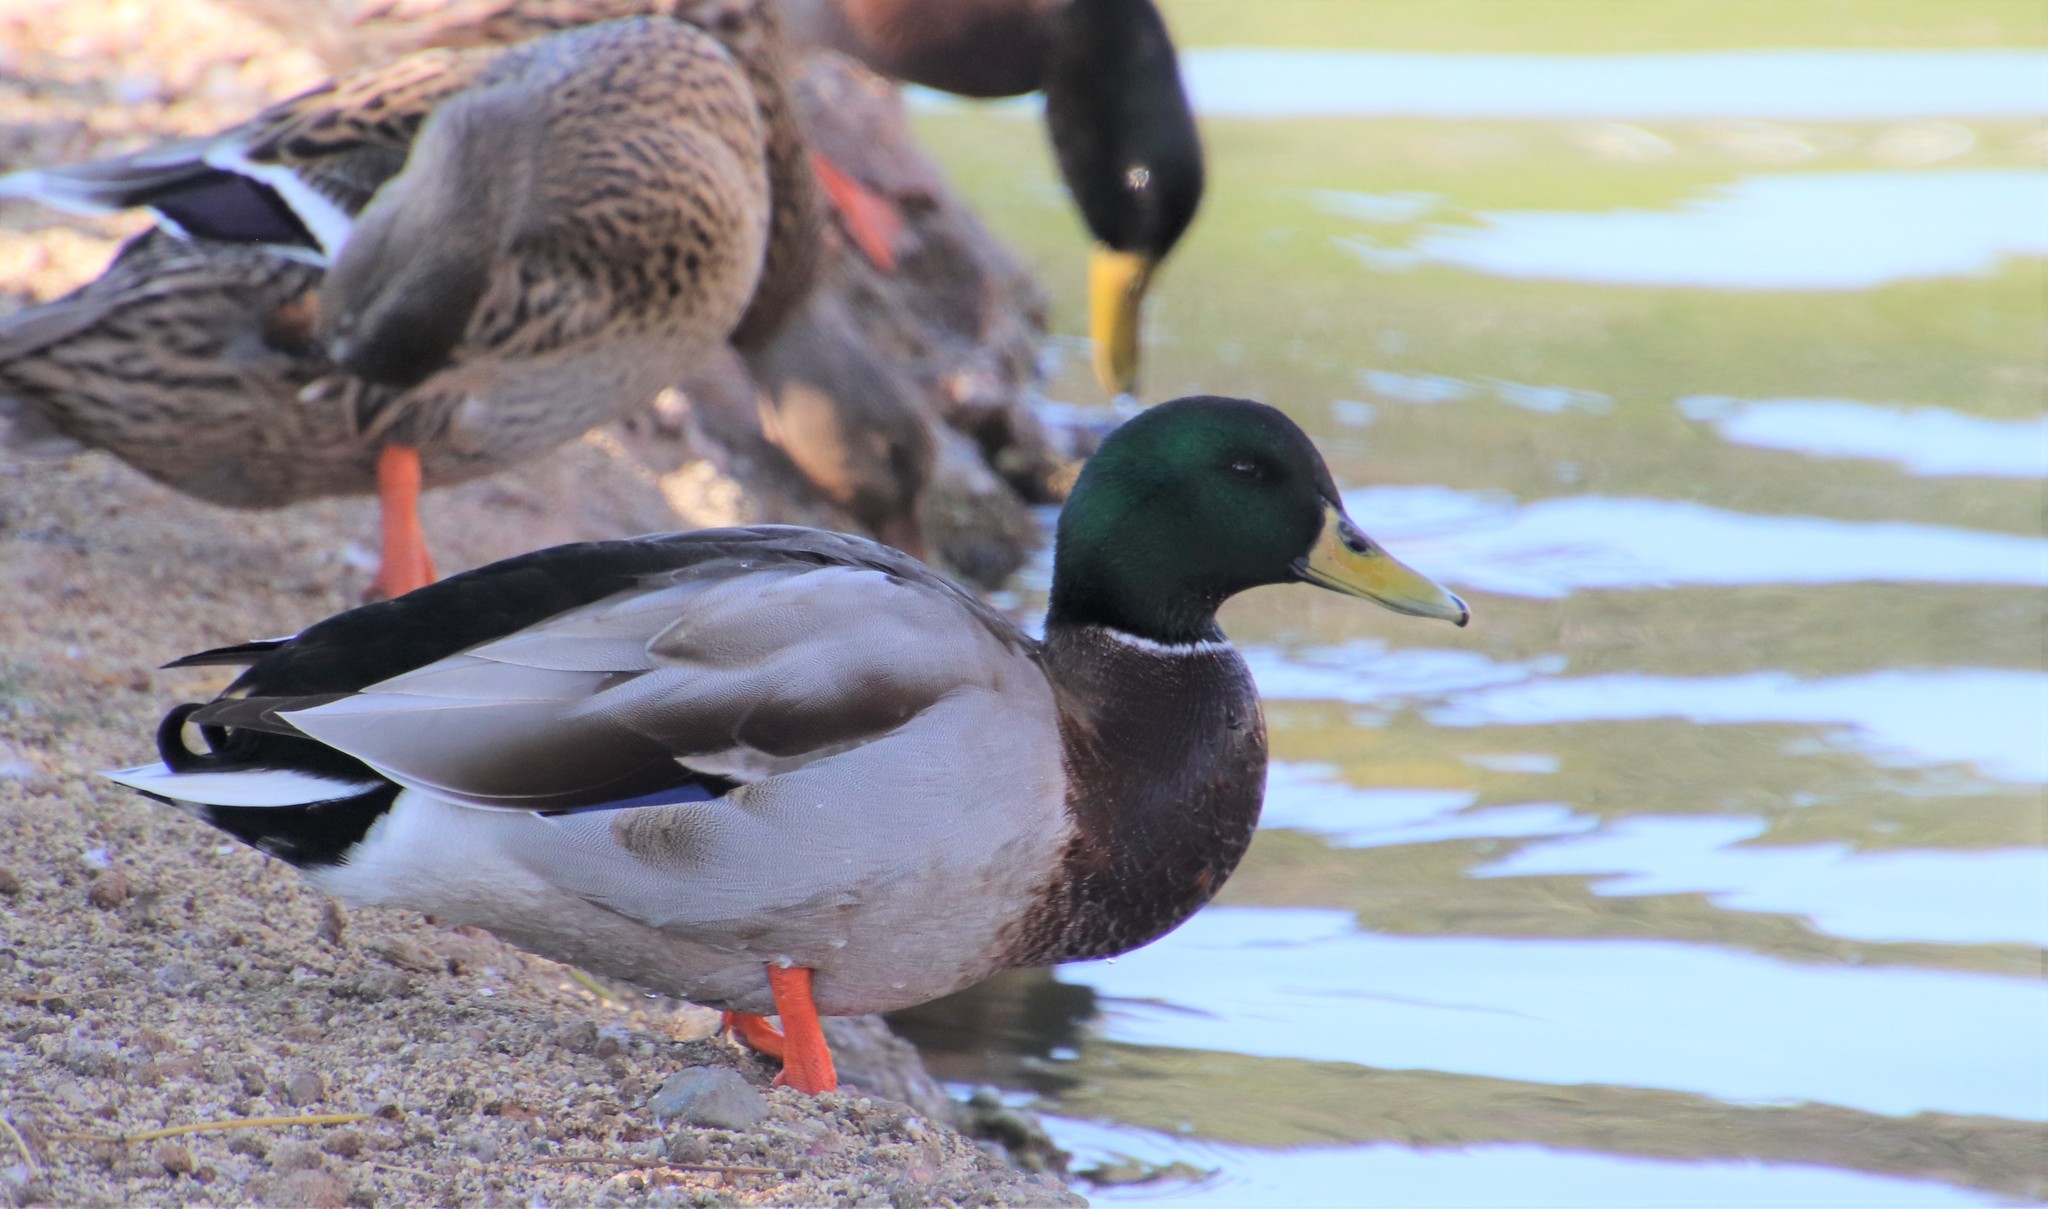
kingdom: Animalia
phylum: Chordata
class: Aves
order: Anseriformes
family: Anatidae
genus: Anas
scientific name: Anas platyrhynchos
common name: Mallard
